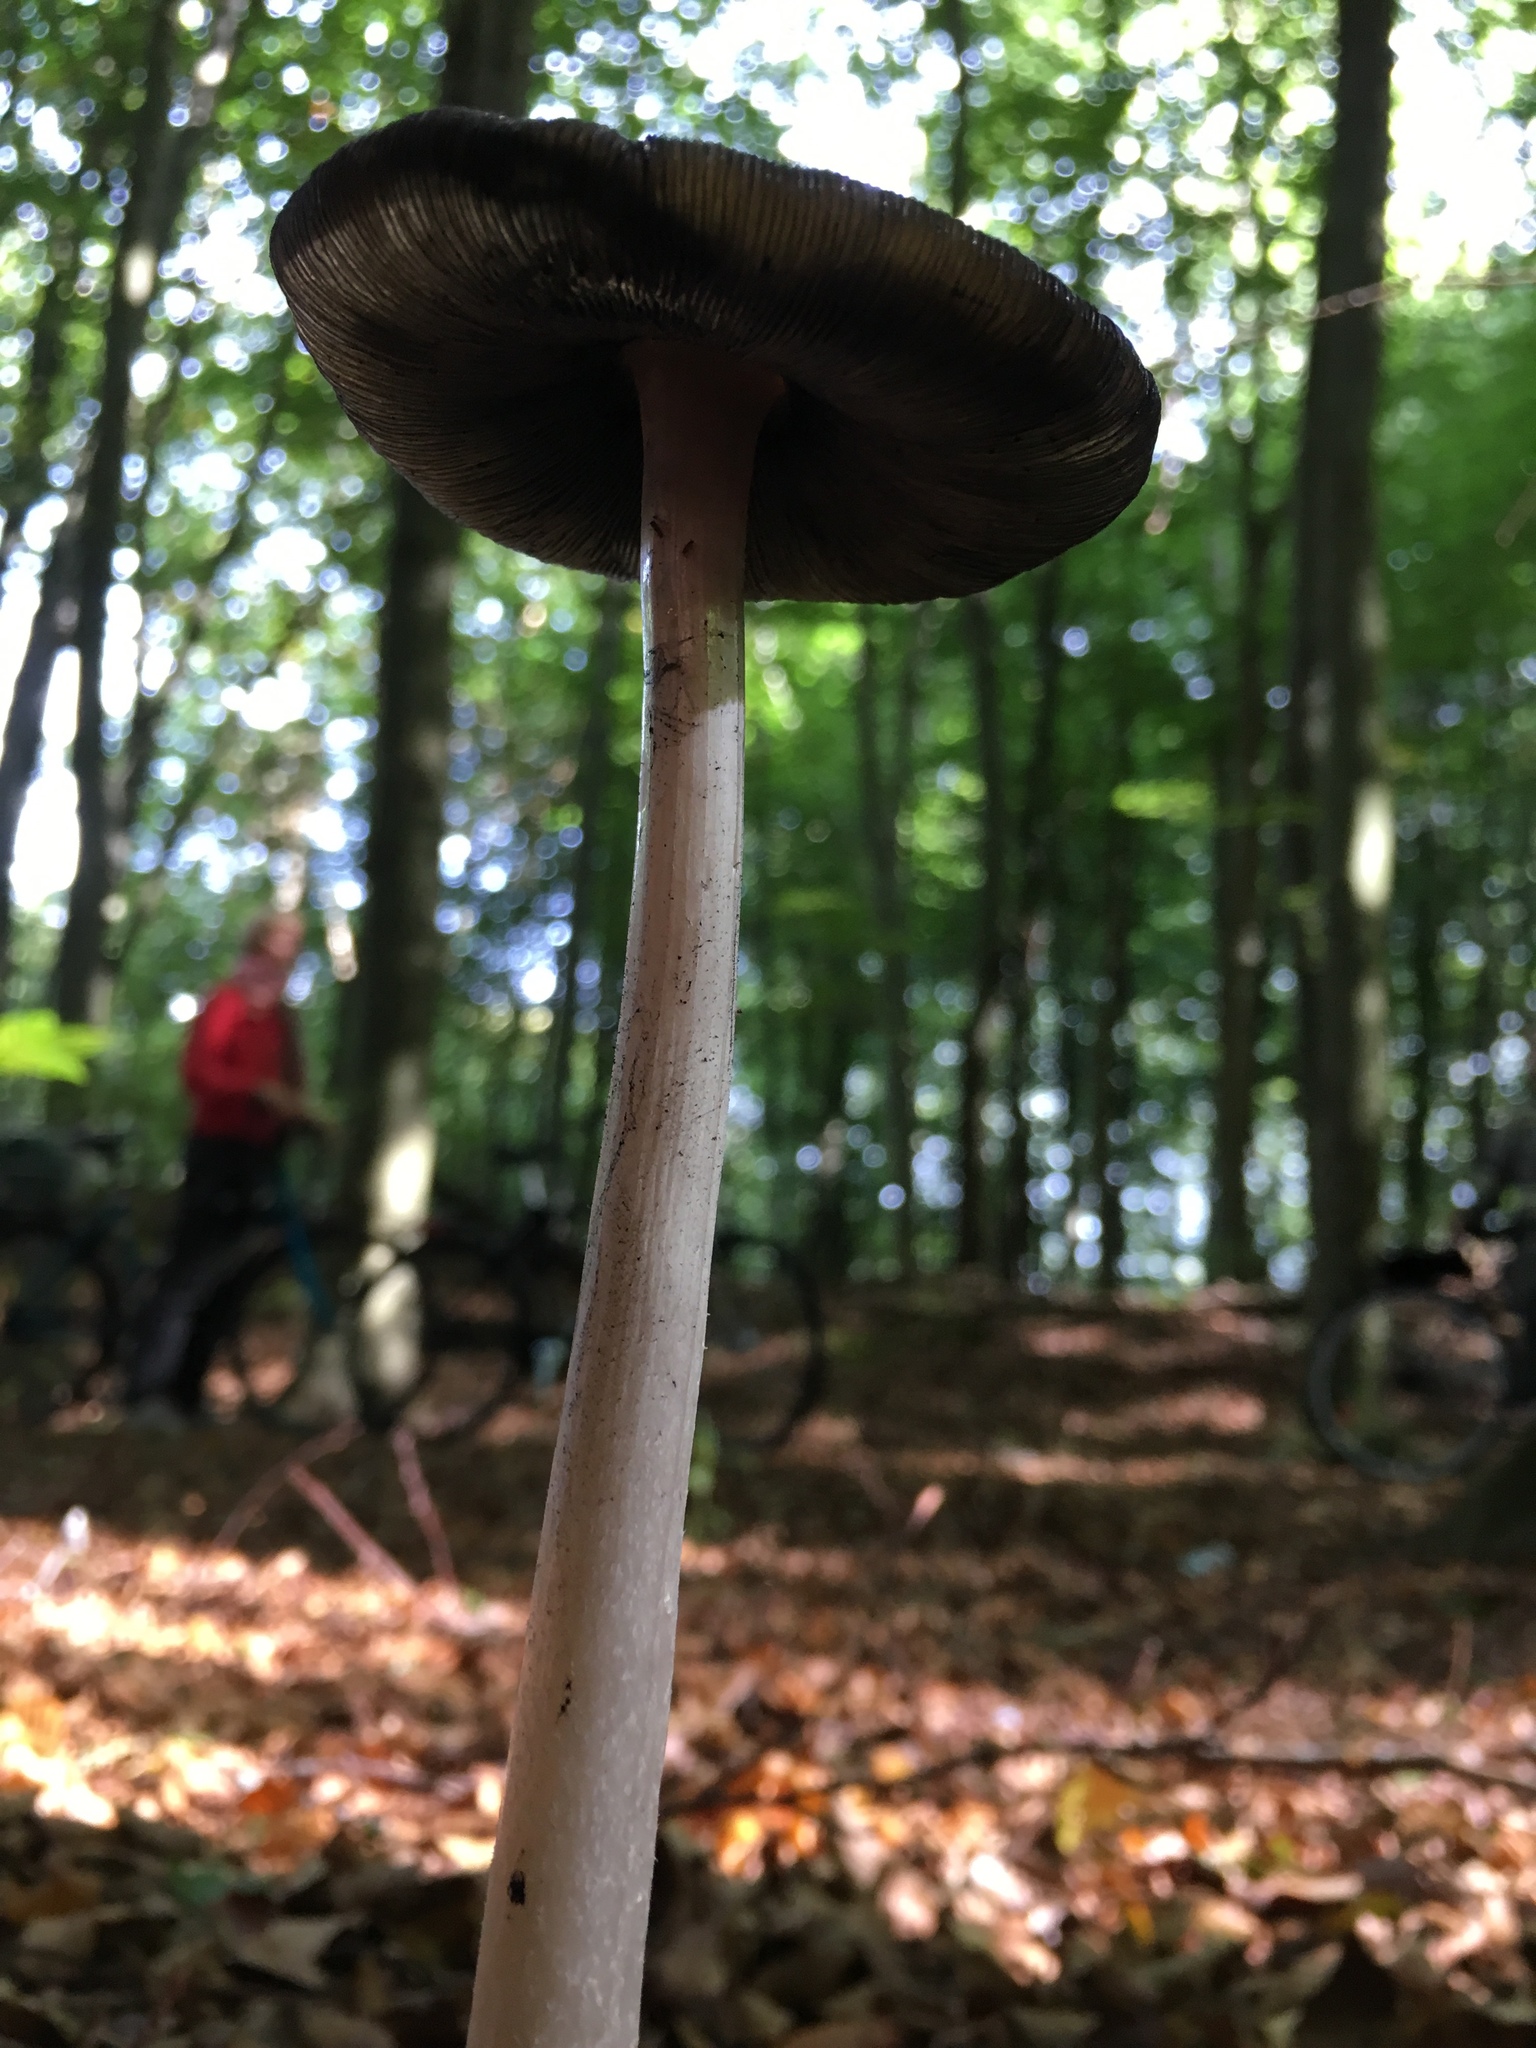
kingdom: Fungi
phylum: Basidiomycota
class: Agaricomycetes
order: Agaricales
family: Psathyrellaceae
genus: Coprinopsis
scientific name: Coprinopsis picacea
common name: Magpie inkcap
